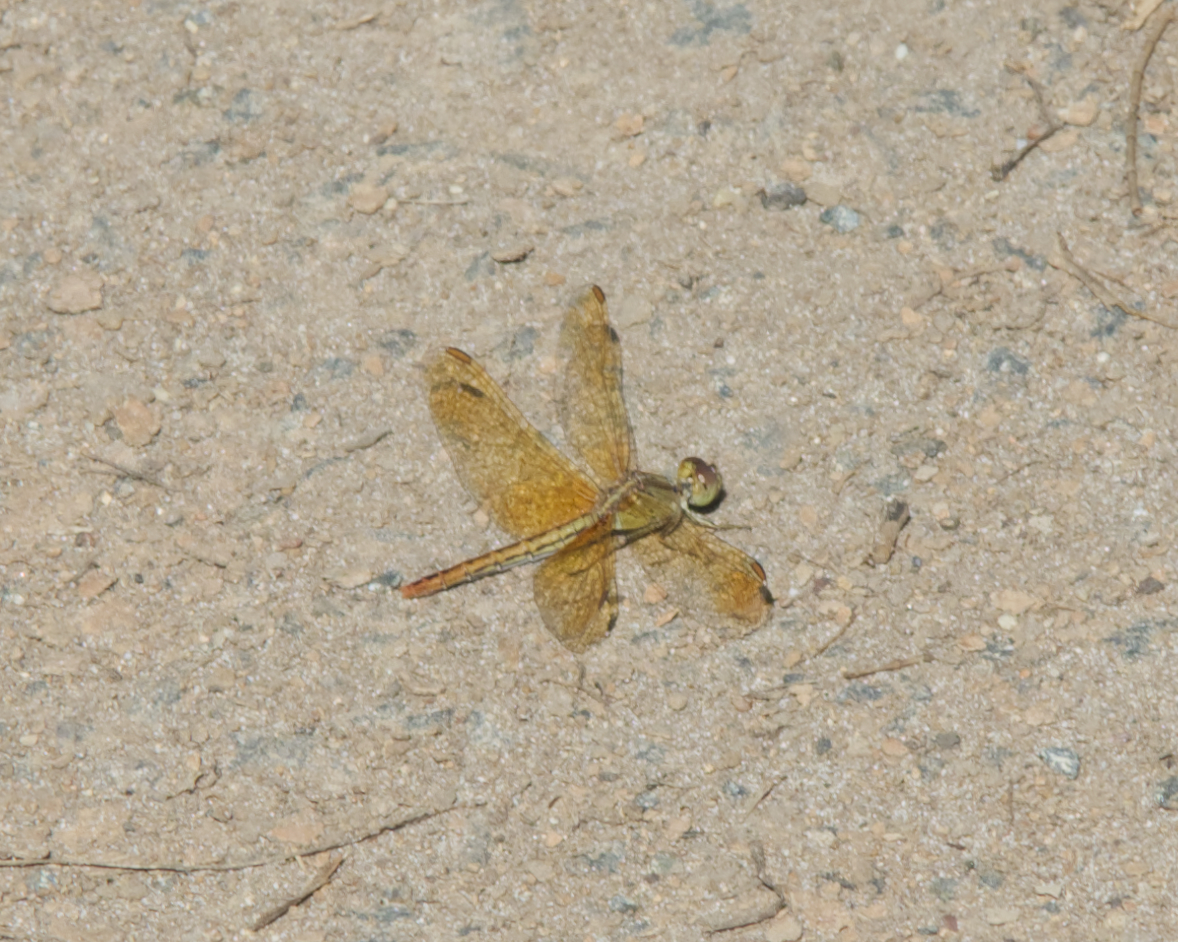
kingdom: Animalia
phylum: Arthropoda
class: Insecta
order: Odonata
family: Libellulidae
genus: Diplacodes
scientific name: Diplacodes haematodes
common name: Scarlet percher
